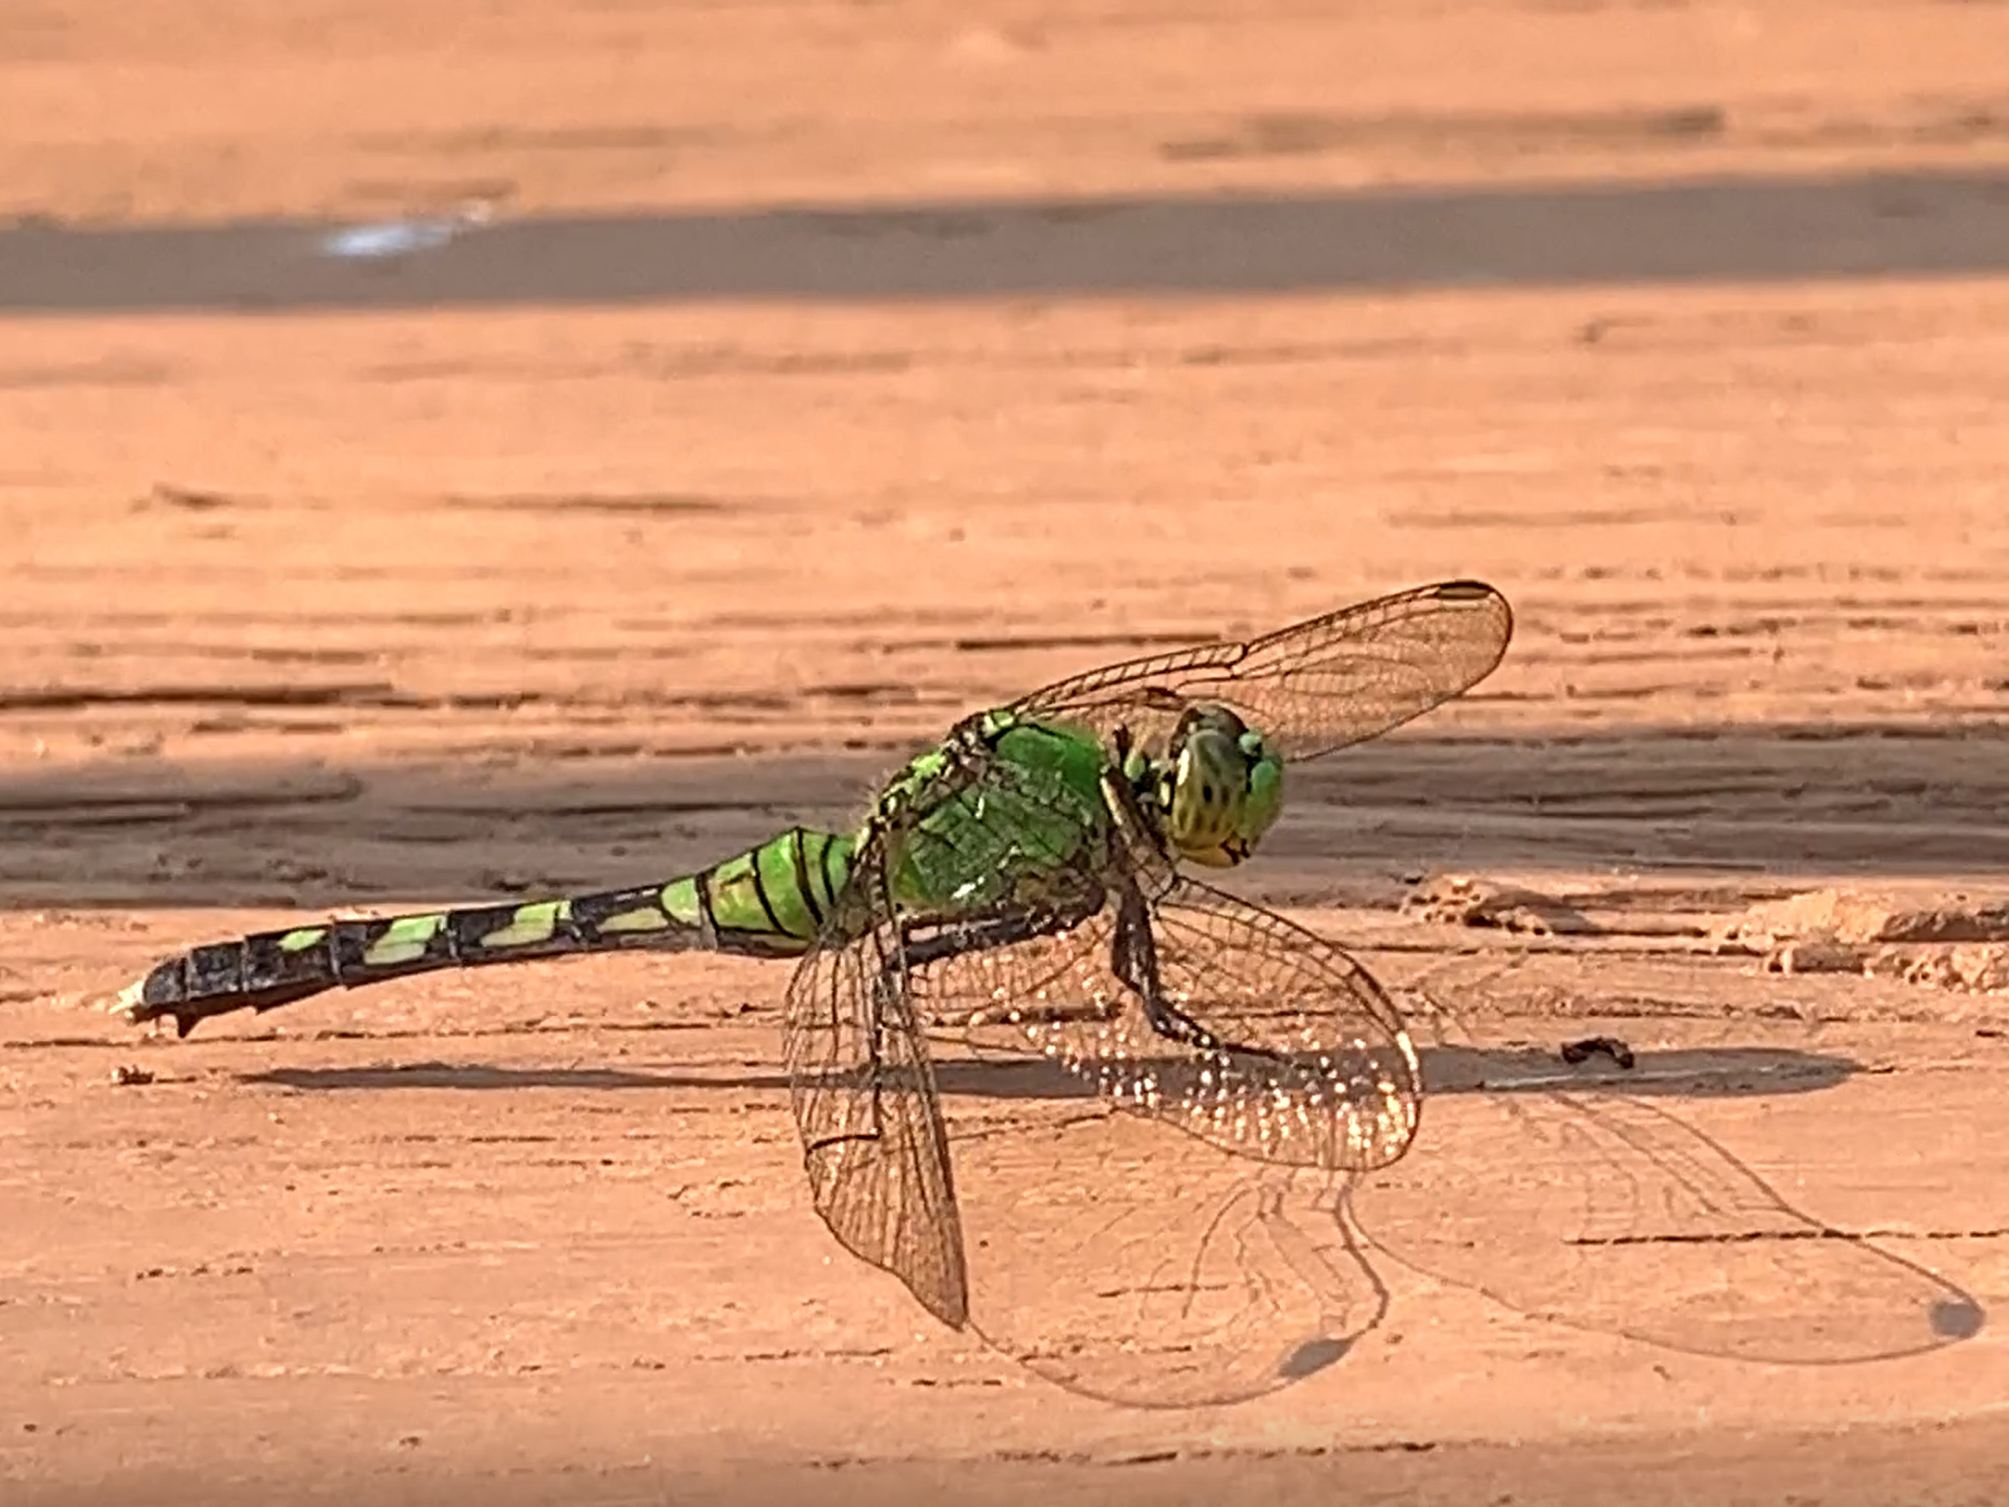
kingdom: Animalia
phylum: Arthropoda
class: Insecta
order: Odonata
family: Libellulidae
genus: Erythemis
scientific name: Erythemis simplicicollis
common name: Eastern pondhawk
